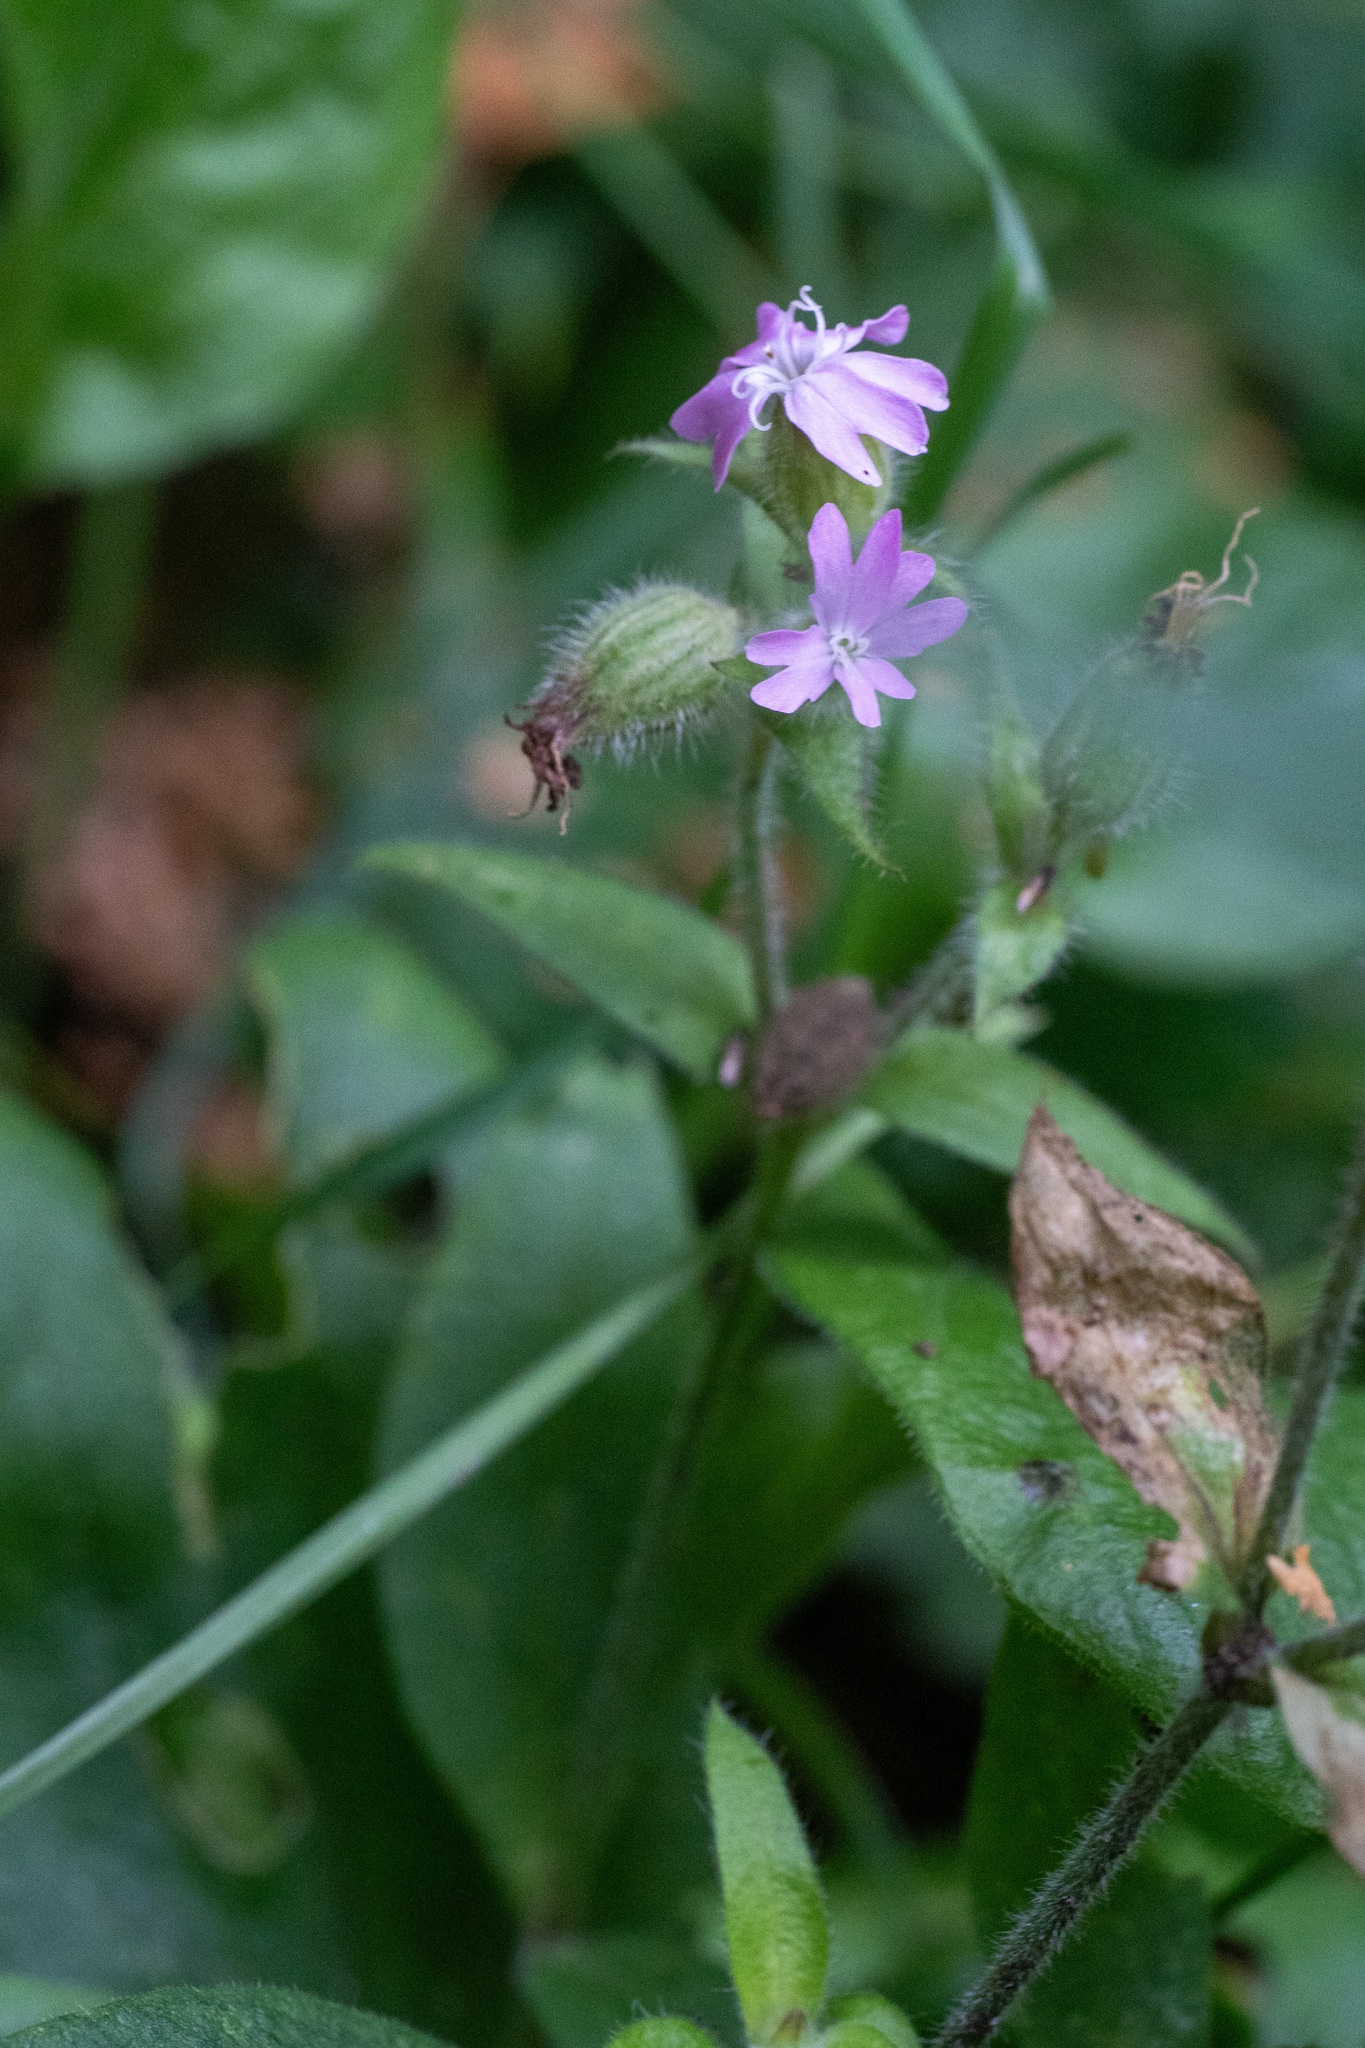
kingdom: Plantae
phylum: Tracheophyta
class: Magnoliopsida
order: Caryophyllales
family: Caryophyllaceae
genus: Silene
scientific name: Silene dioica
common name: Red campion
